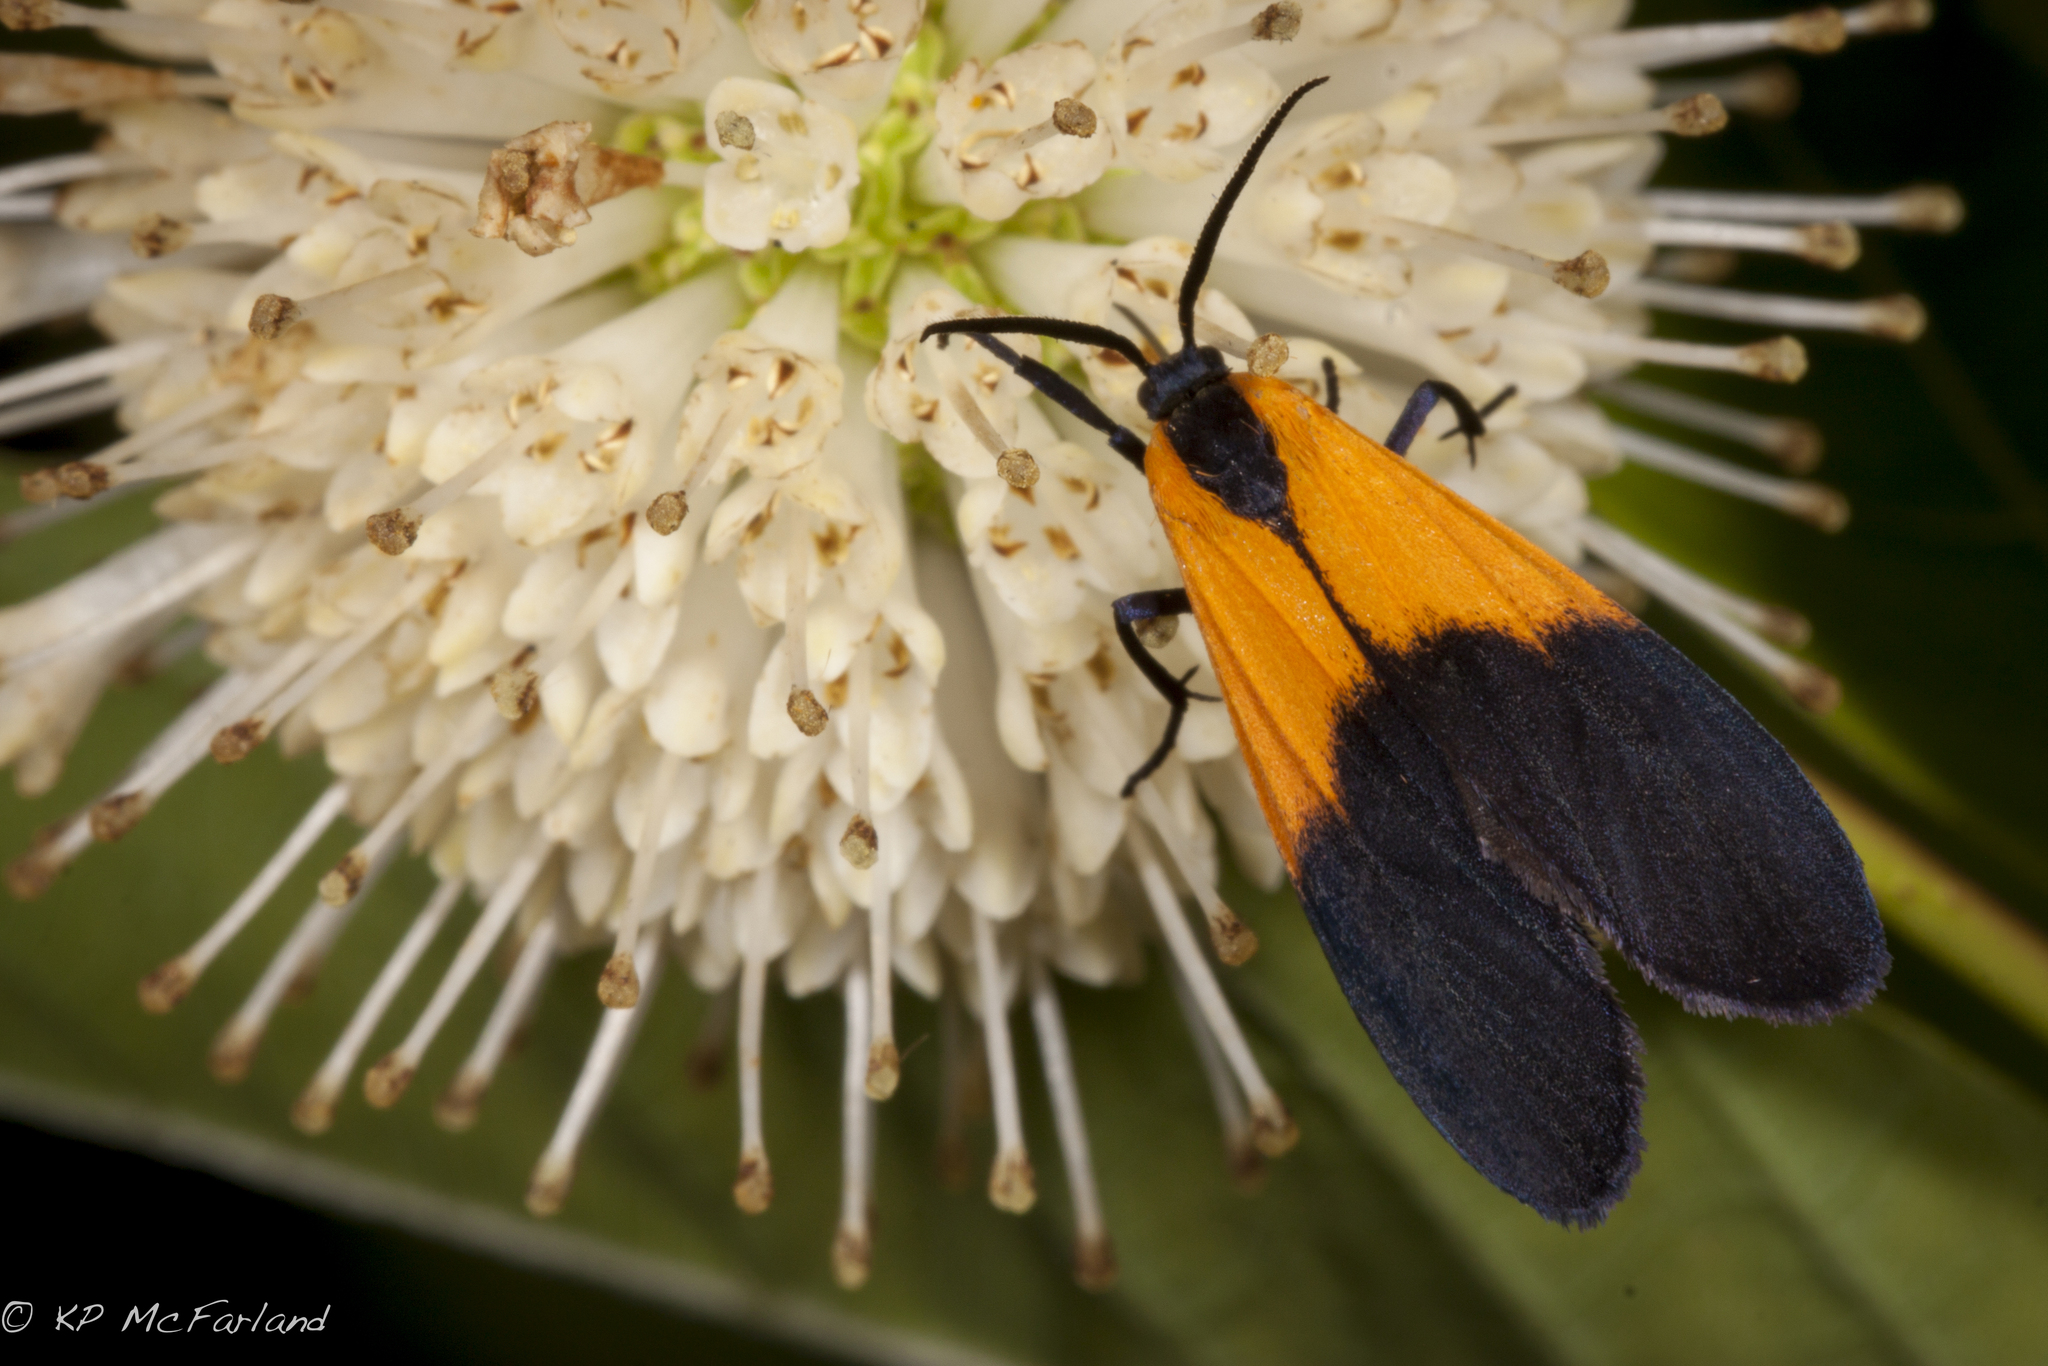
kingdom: Animalia
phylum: Arthropoda
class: Insecta
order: Lepidoptera
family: Erebidae
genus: Lycomorpha
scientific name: Lycomorpha pholus
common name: Black-and-yellow lichen moth
